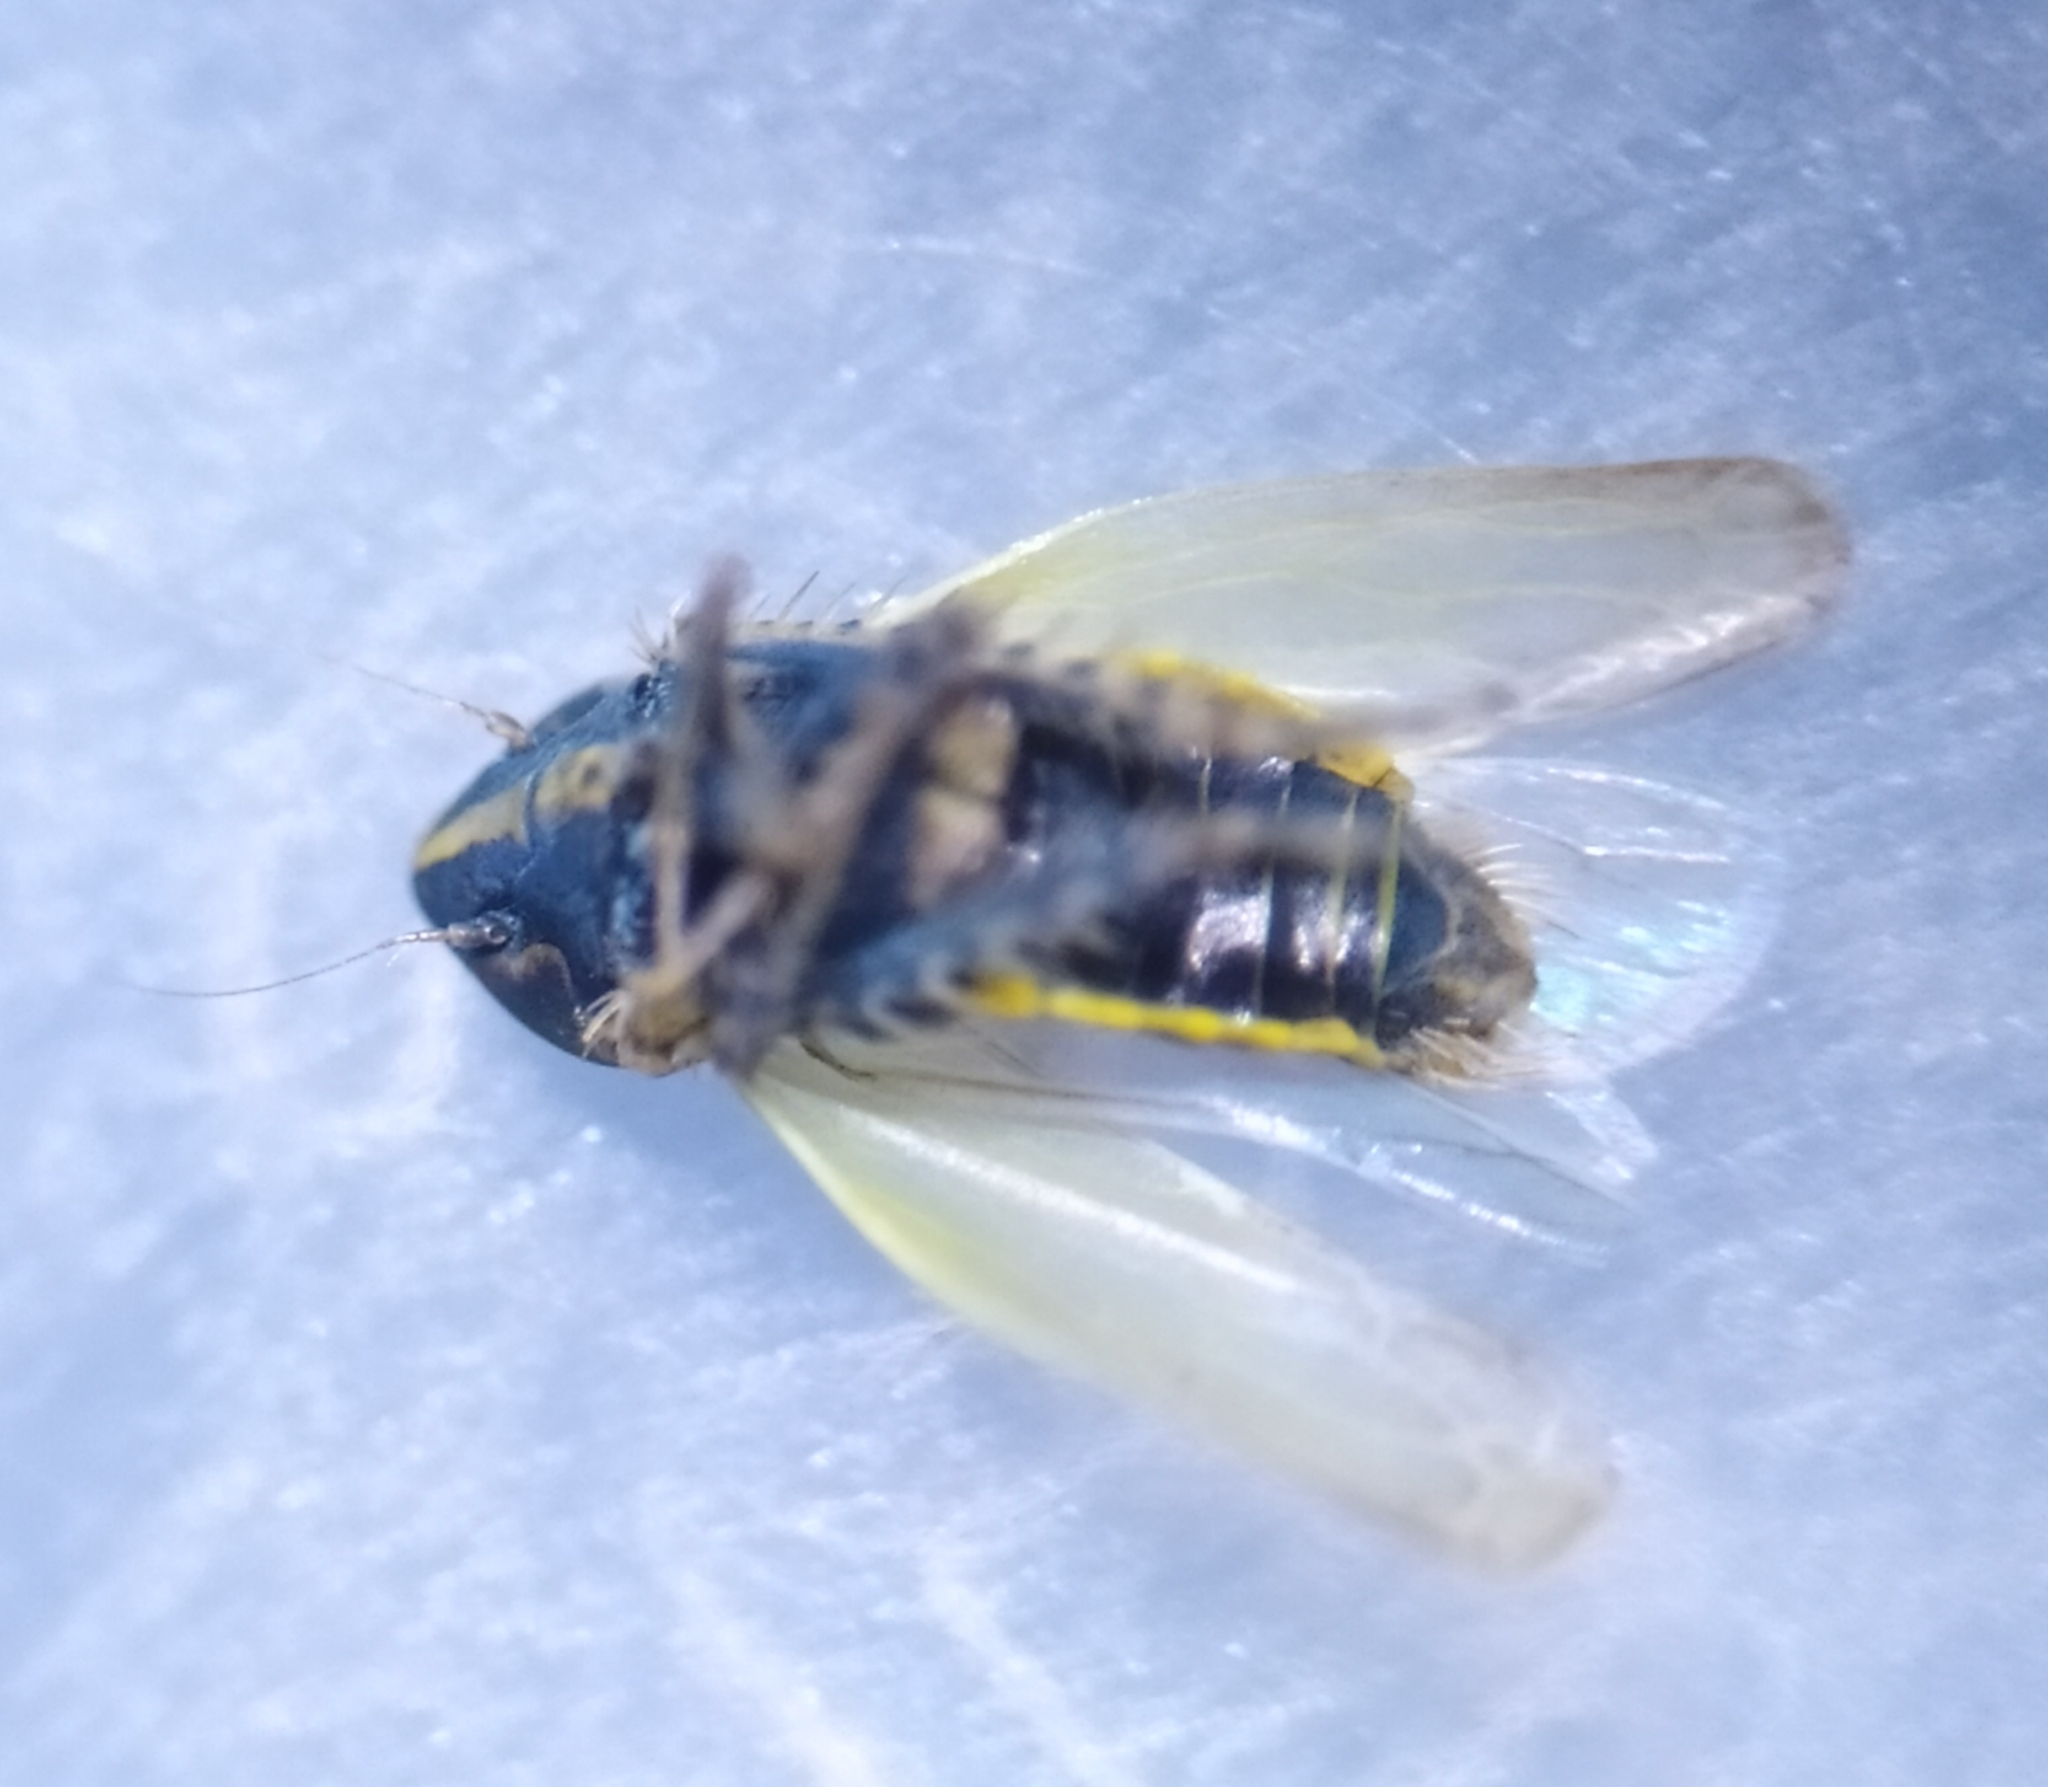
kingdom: Animalia
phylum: Arthropoda
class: Insecta
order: Hemiptera
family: Cicadellidae
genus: Arthaldeus
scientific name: Arthaldeus striifrons
